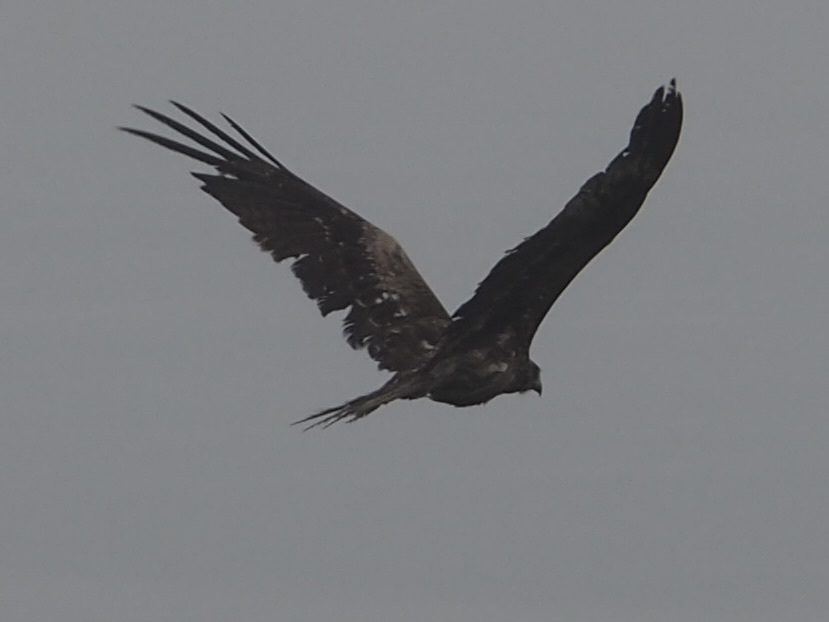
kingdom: Animalia
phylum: Chordata
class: Aves
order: Accipitriformes
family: Accipitridae
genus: Milvus
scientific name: Milvus migrans
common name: Black kite
